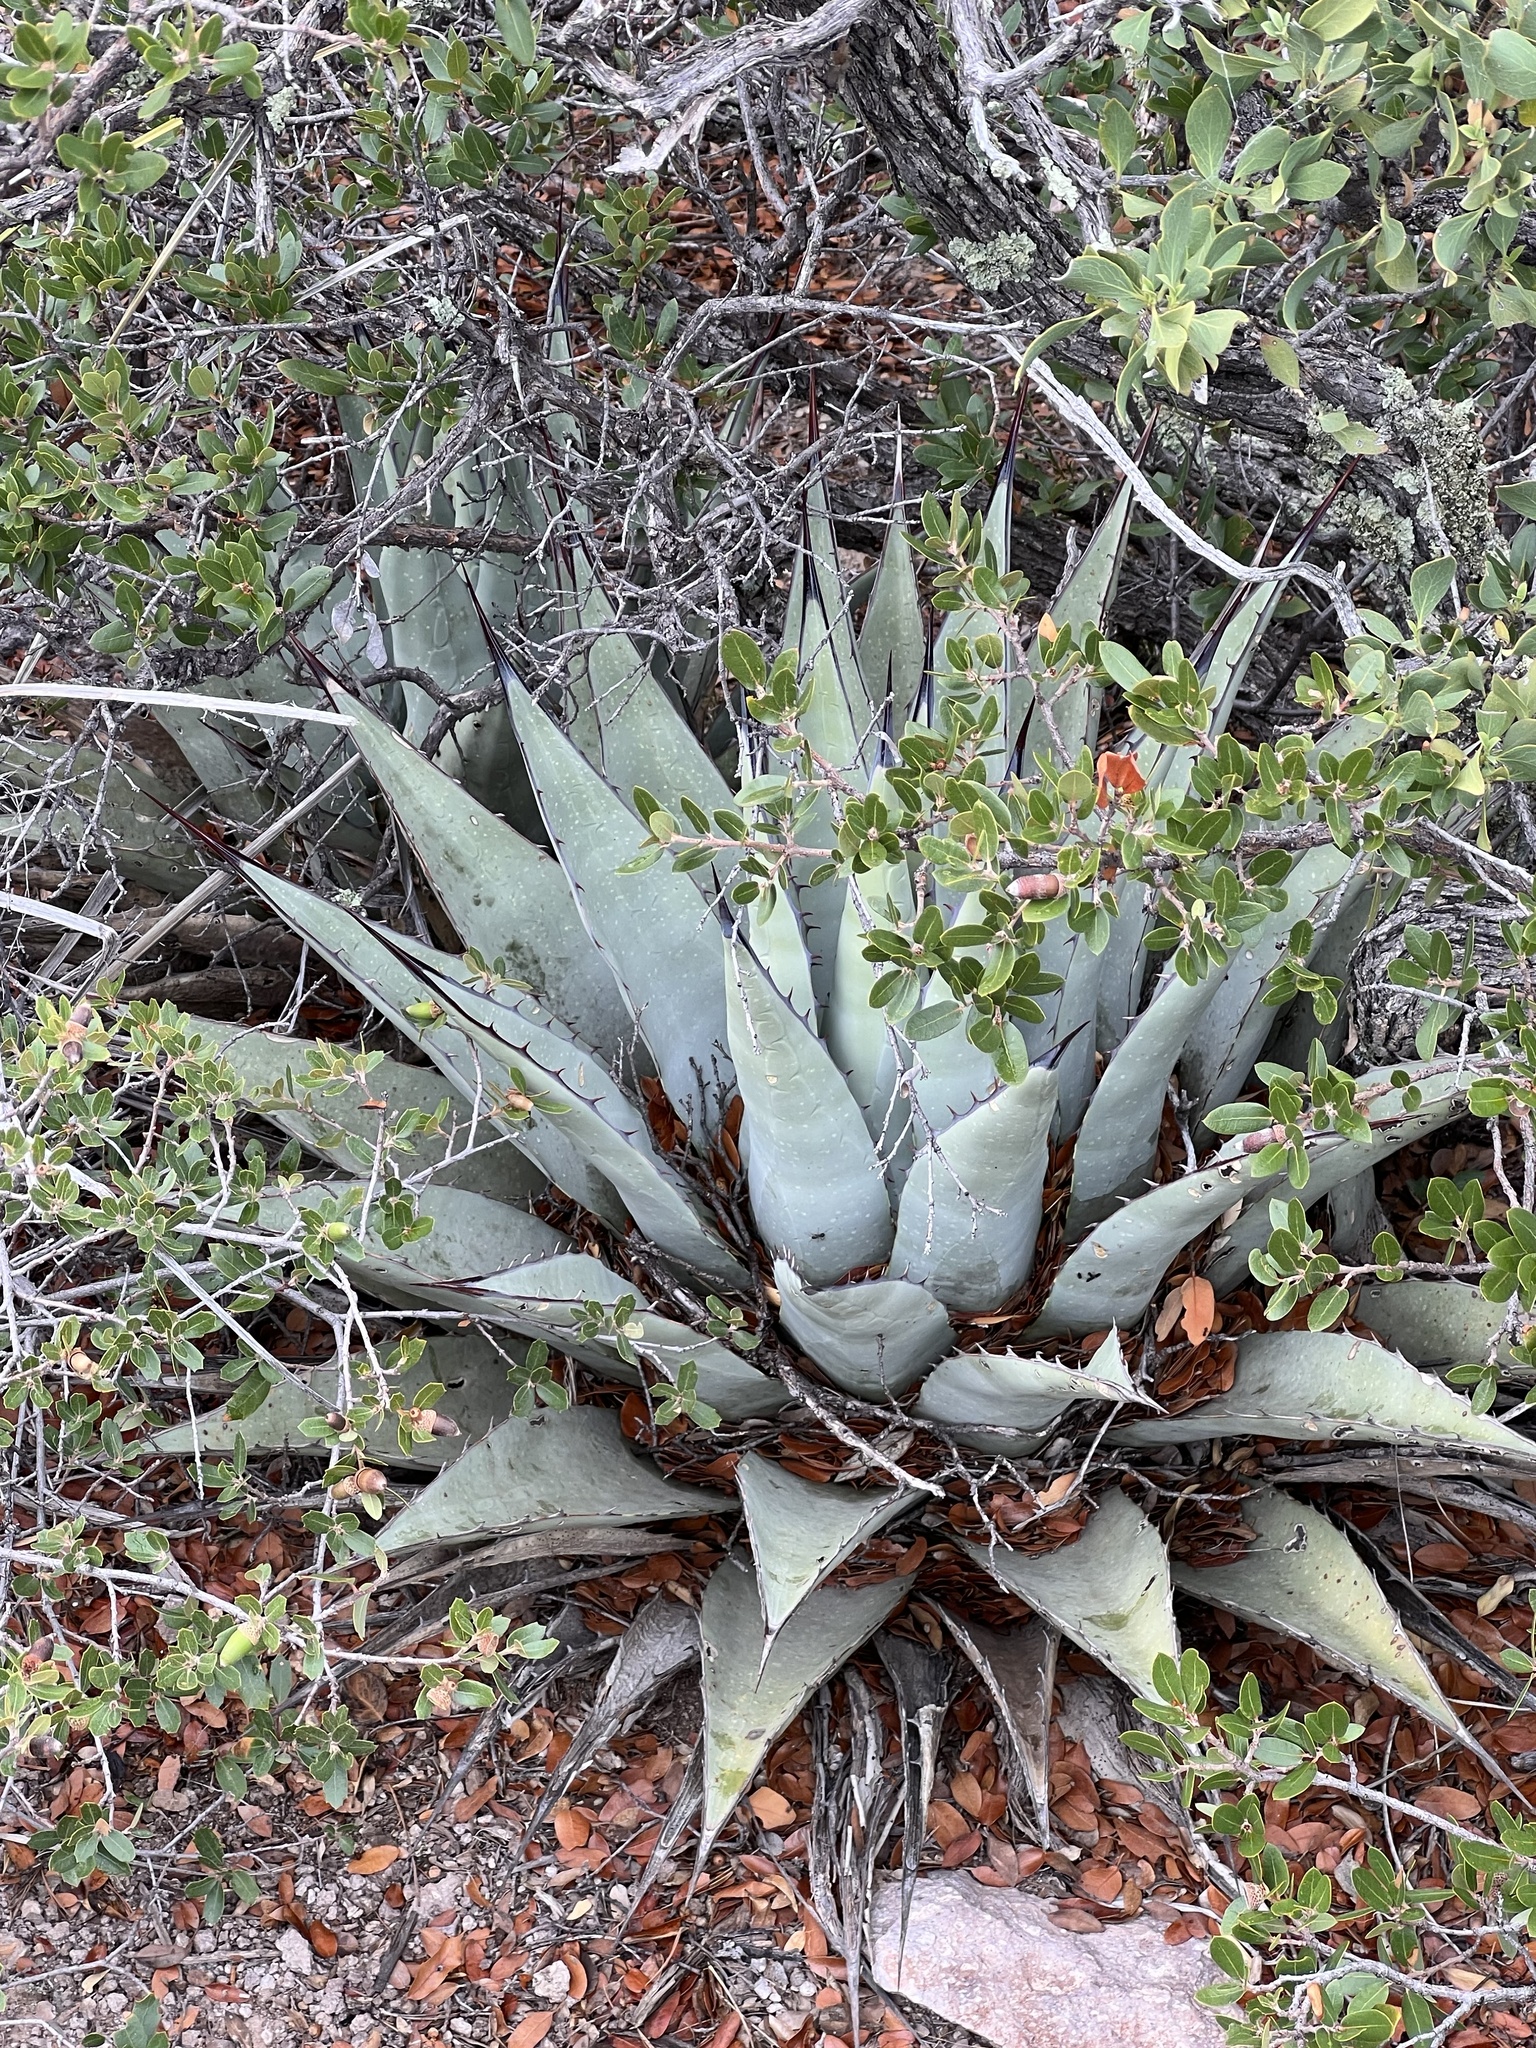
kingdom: Plantae
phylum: Tracheophyta
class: Liliopsida
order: Asparagales
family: Asparagaceae
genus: Agave
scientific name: Agave parryi
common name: Parry's agave
